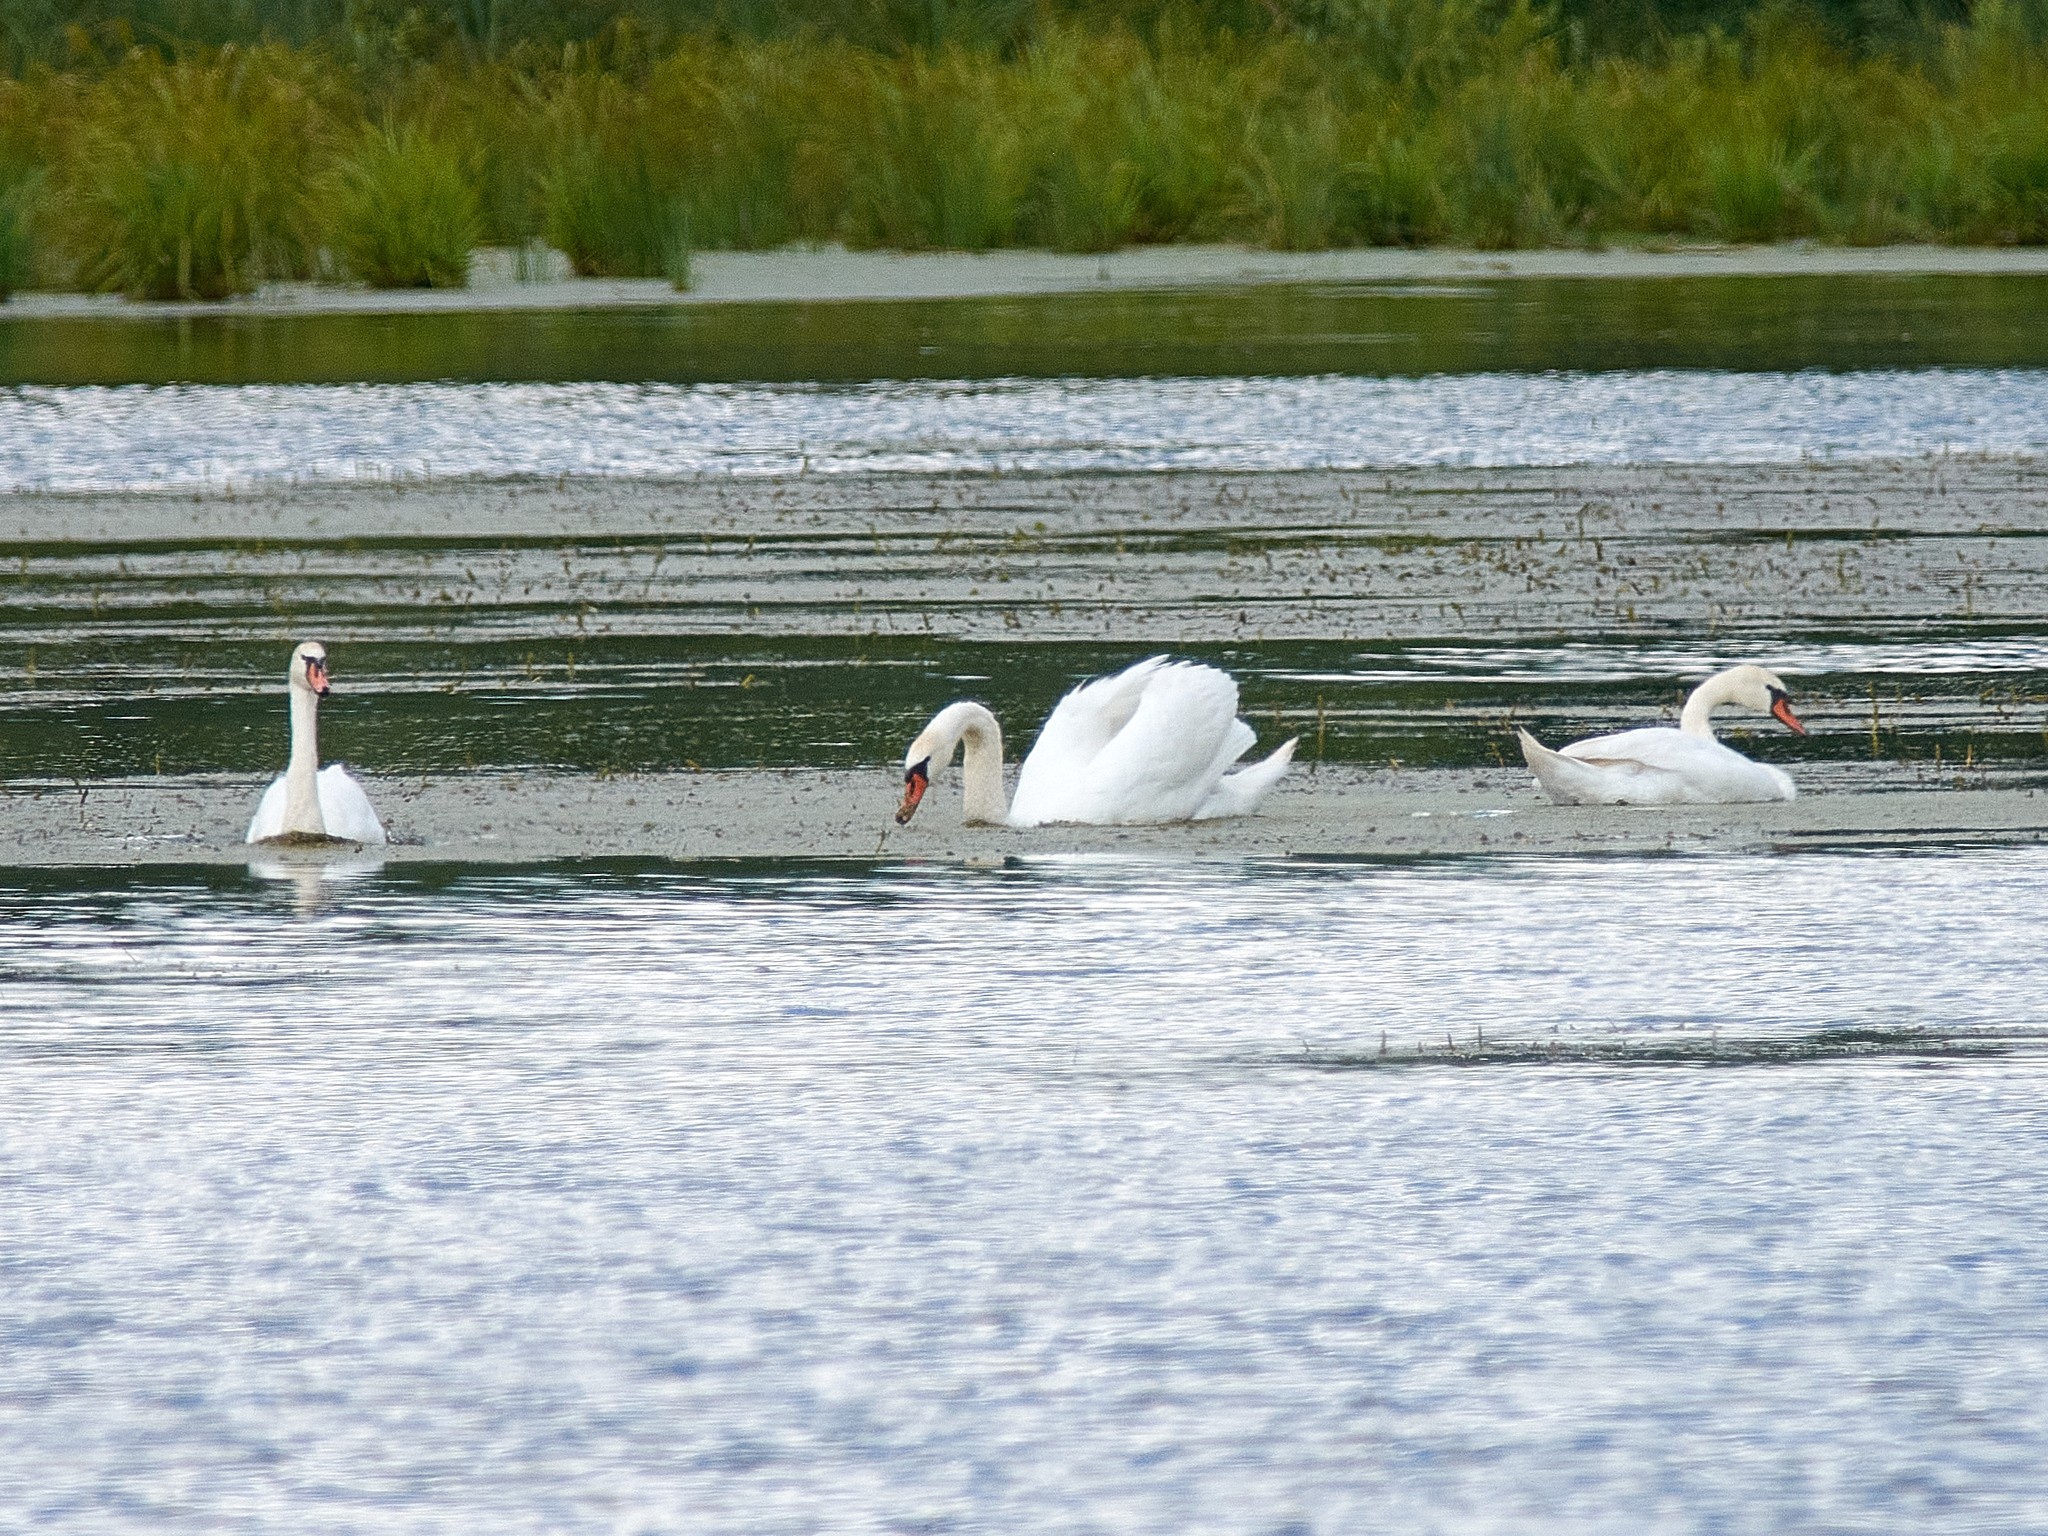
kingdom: Animalia
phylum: Chordata
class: Aves
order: Anseriformes
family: Anatidae
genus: Cygnus
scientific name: Cygnus olor
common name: Mute swan
